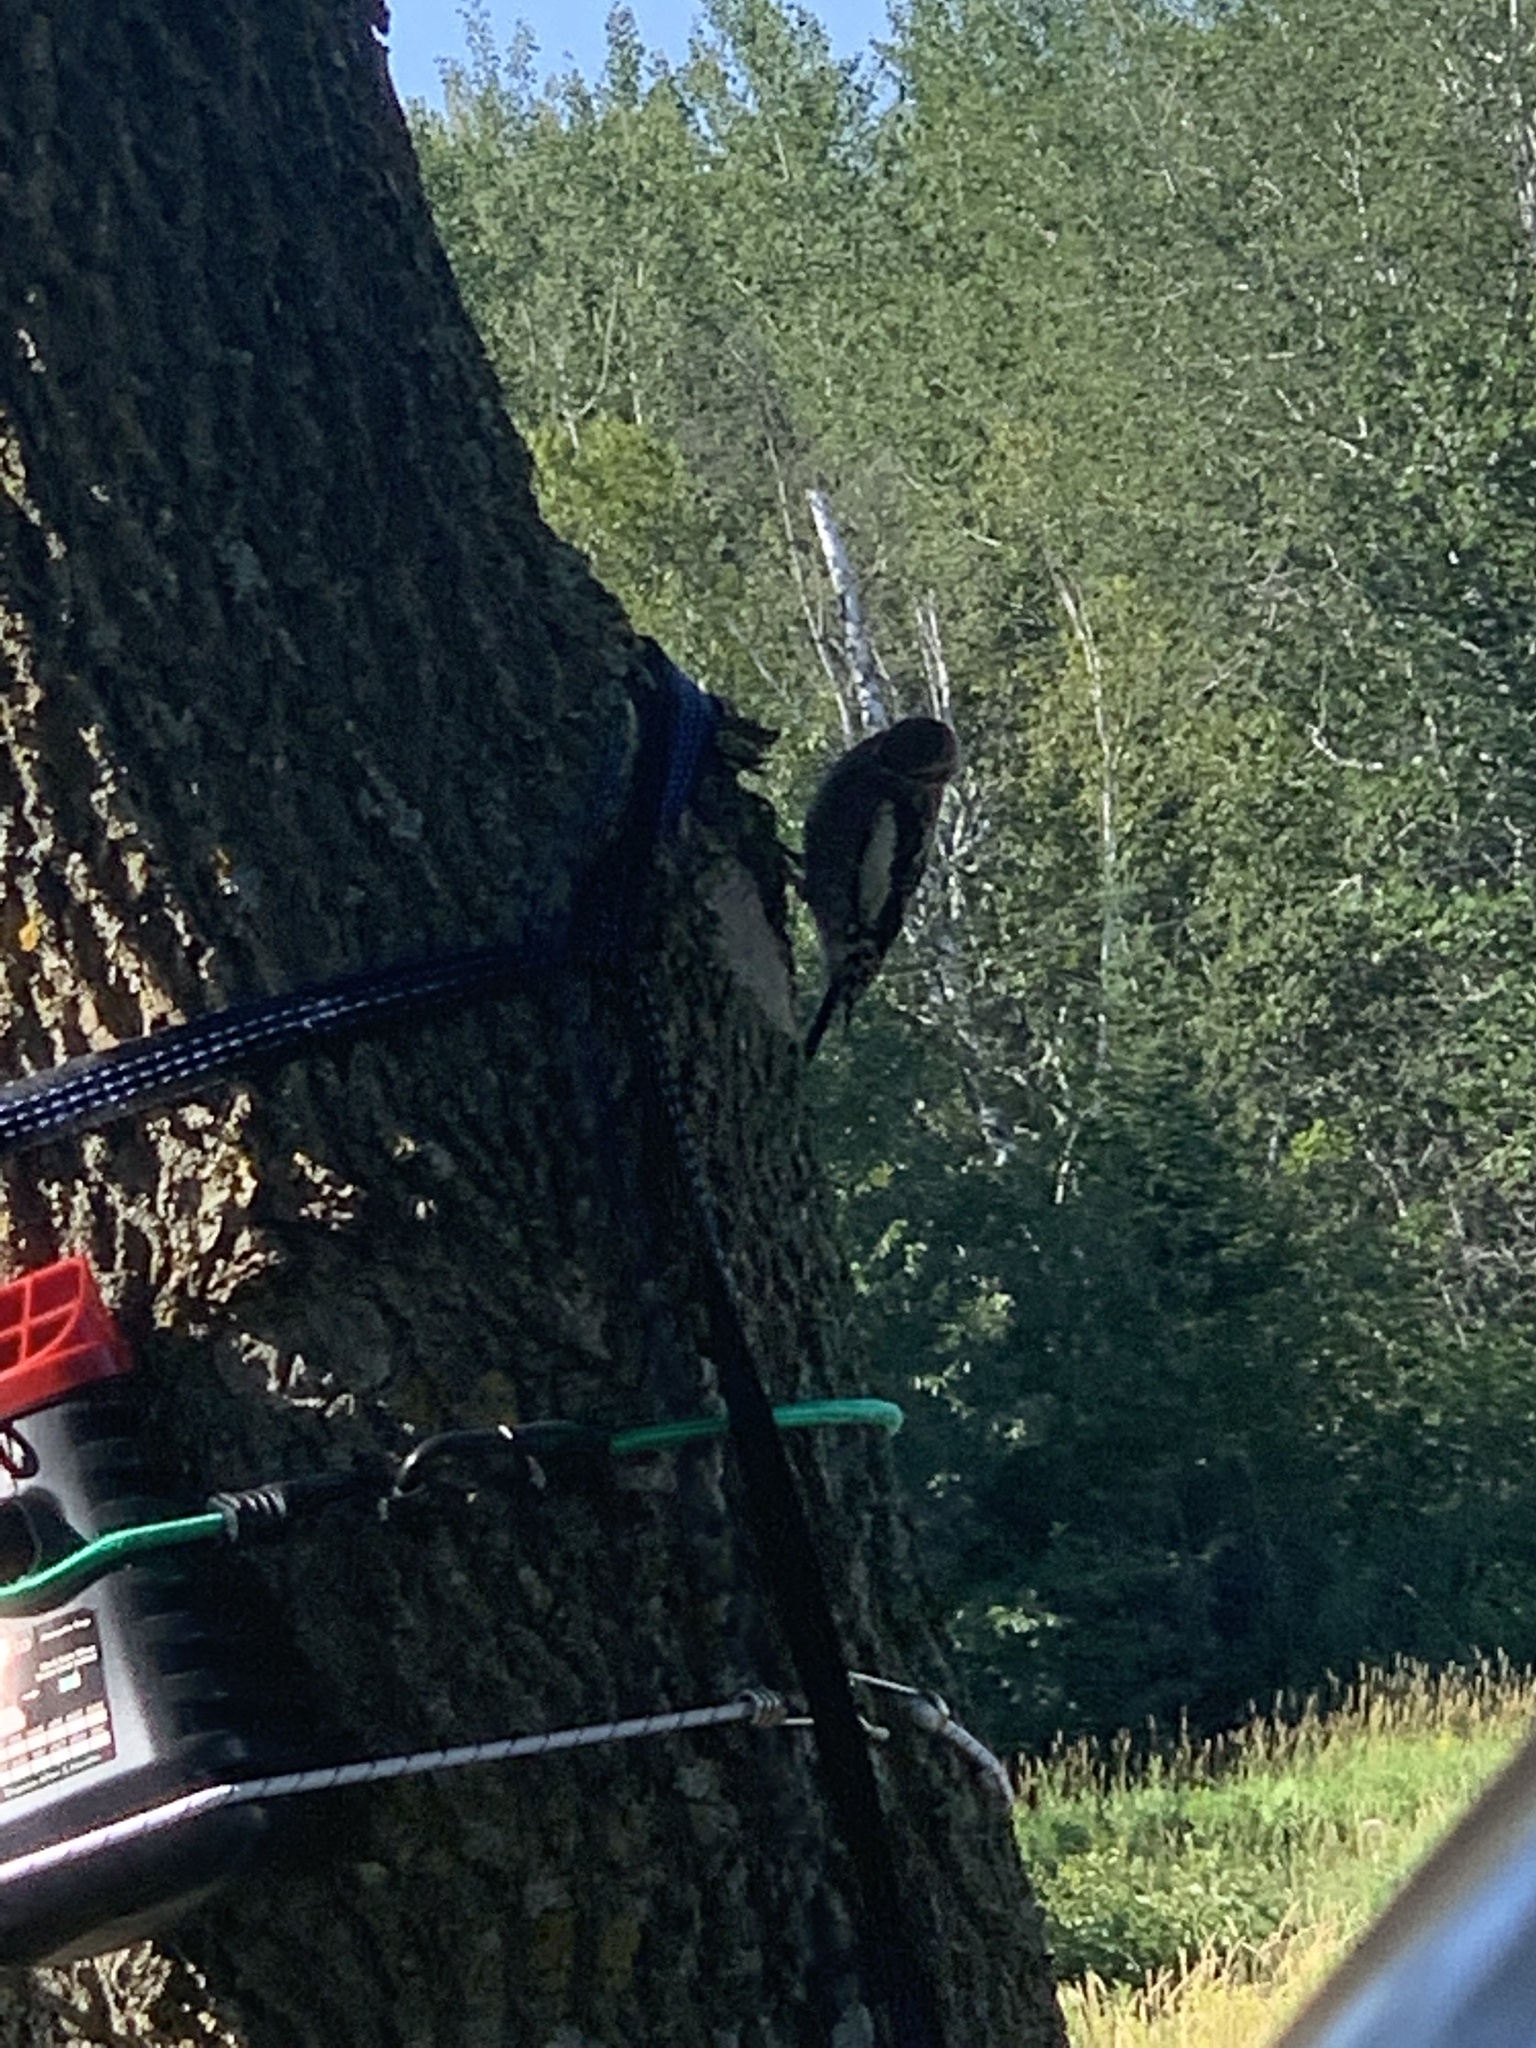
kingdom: Animalia
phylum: Chordata
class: Aves
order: Piciformes
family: Picidae
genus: Sphyrapicus
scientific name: Sphyrapicus varius
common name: Yellow-bellied sapsucker
